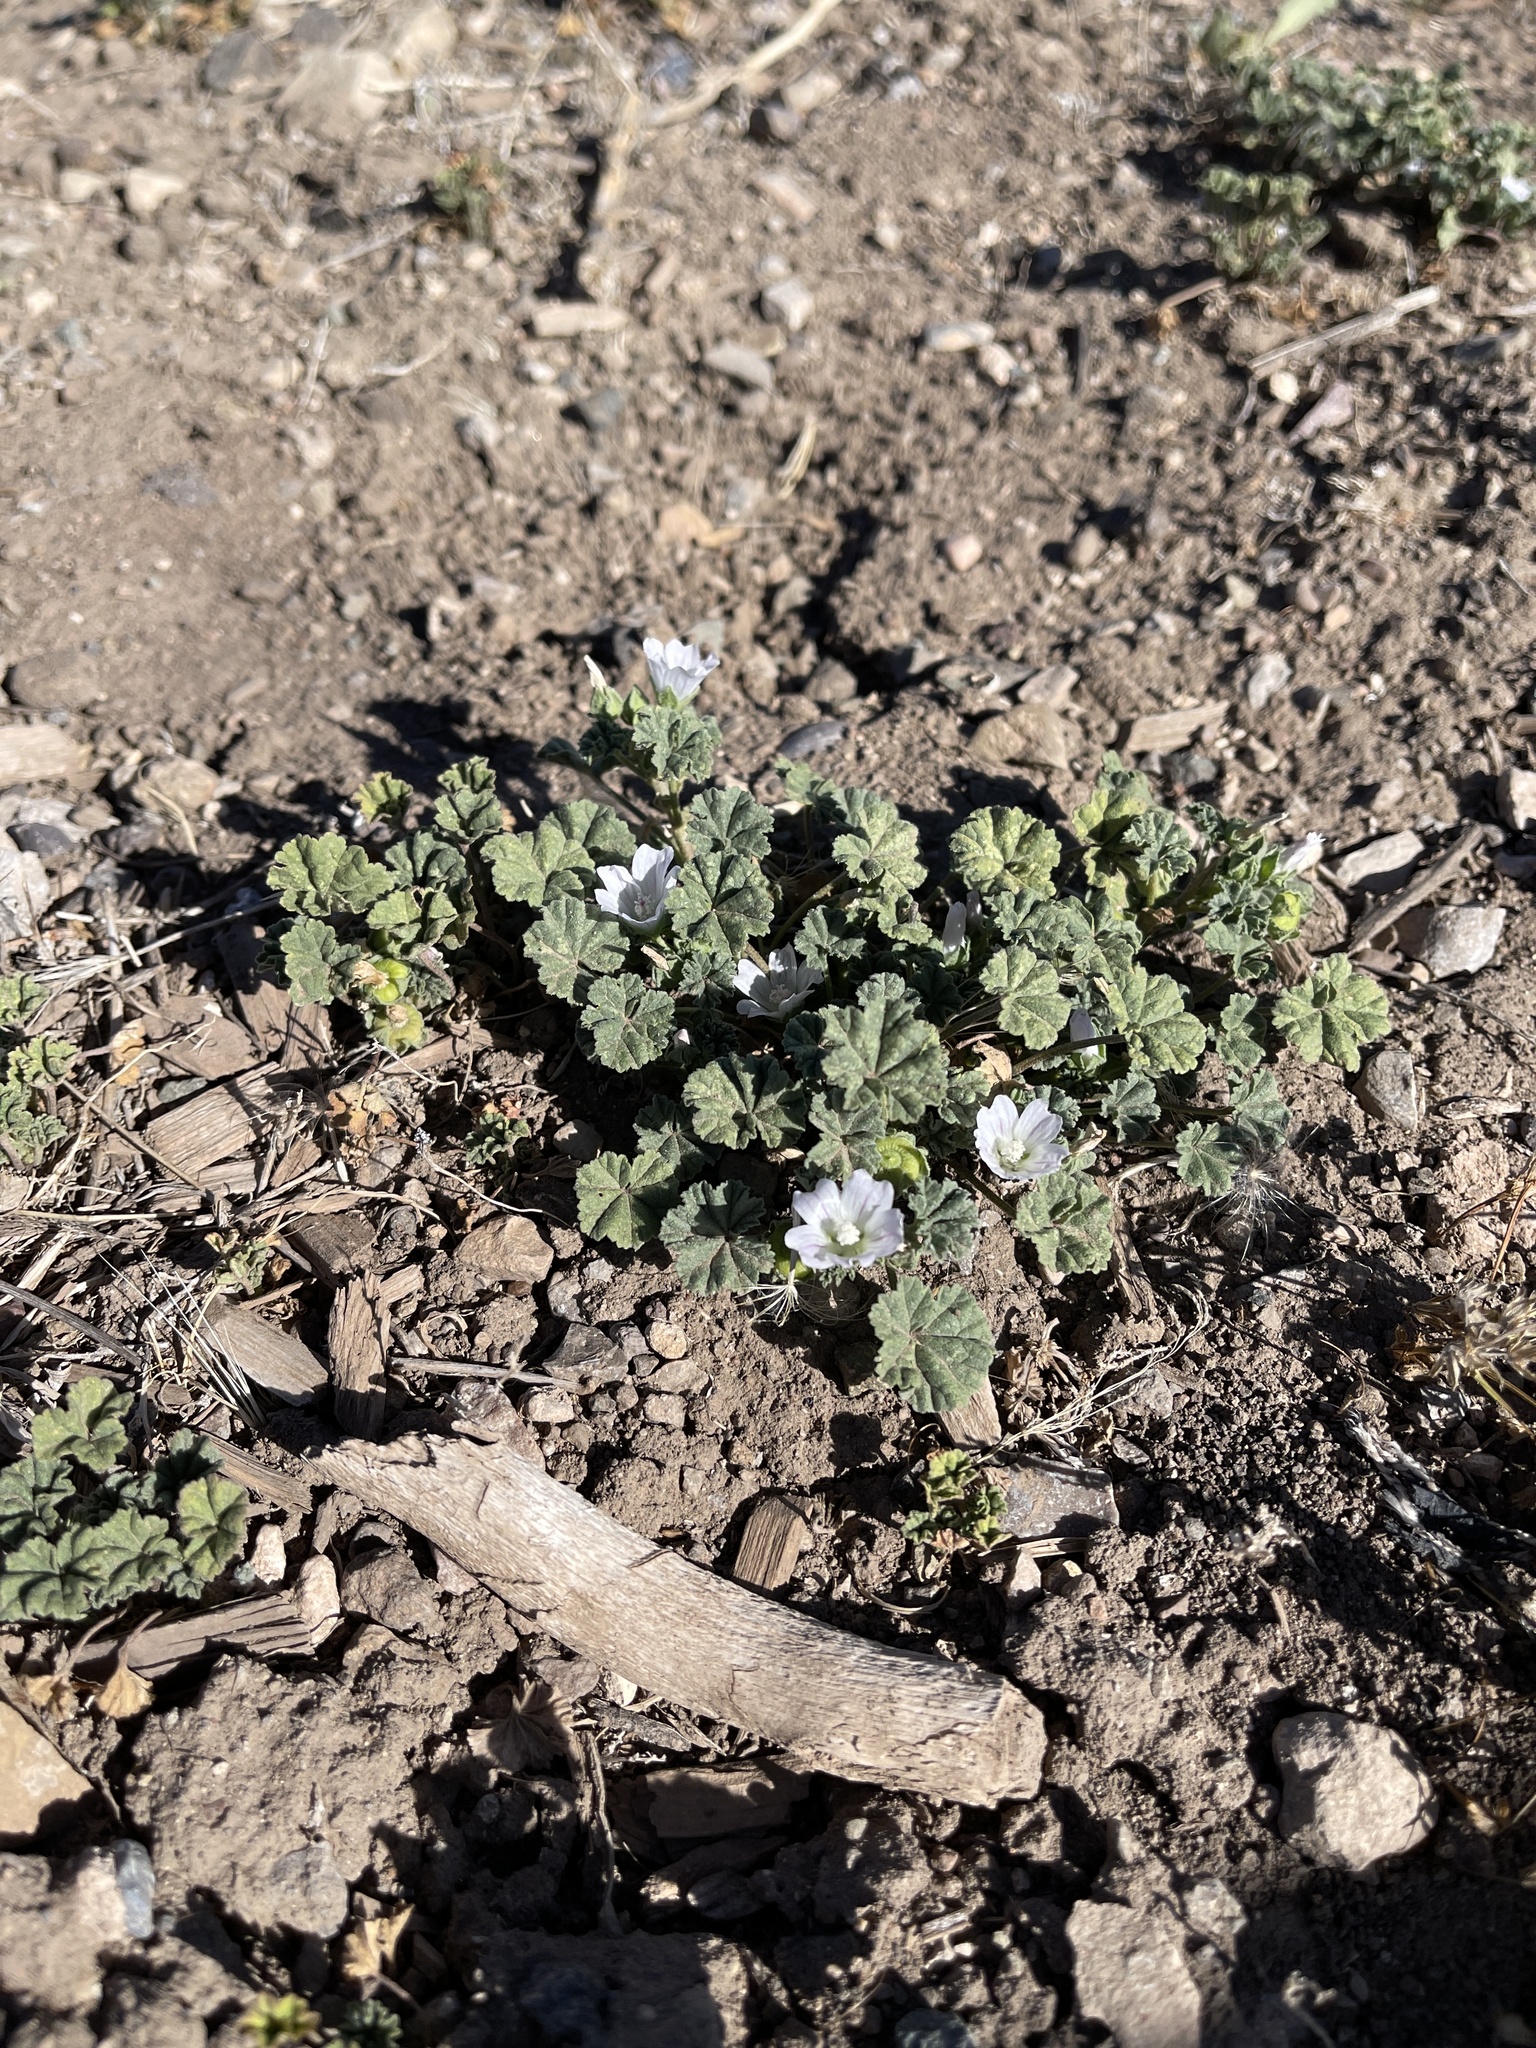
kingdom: Plantae
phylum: Tracheophyta
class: Magnoliopsida
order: Malvales
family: Malvaceae
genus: Malva
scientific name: Malva neglecta
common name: Common mallow
